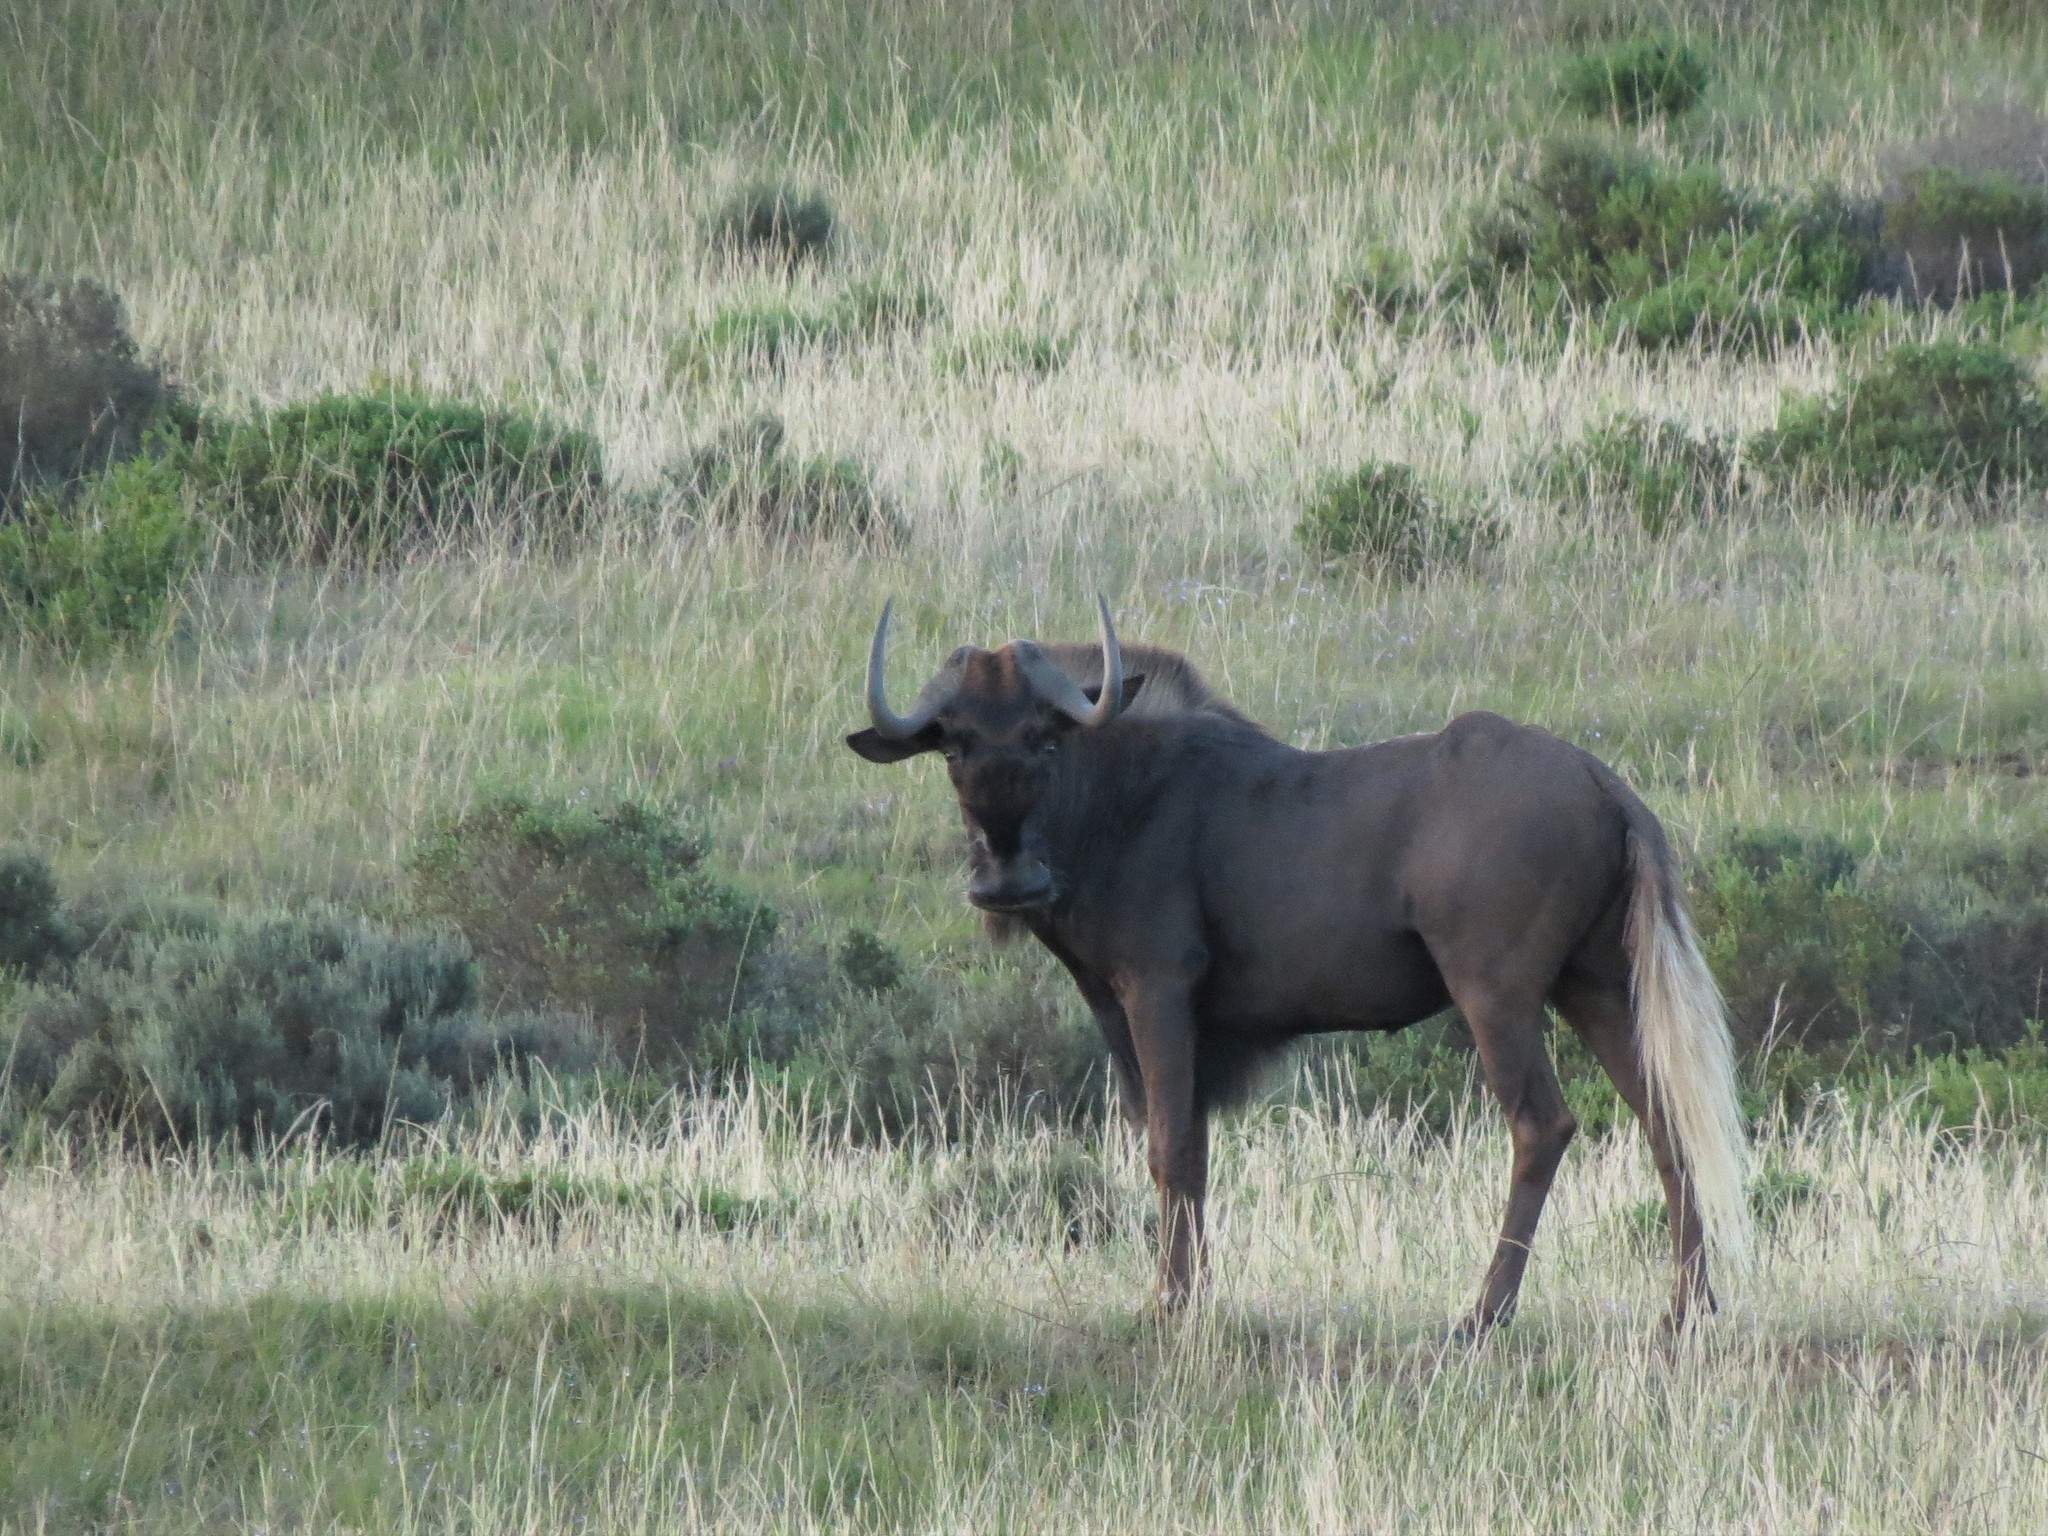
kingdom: Animalia
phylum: Chordata
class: Mammalia
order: Artiodactyla
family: Bovidae
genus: Connochaetes
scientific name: Connochaetes gnou
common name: Black wildebeest
